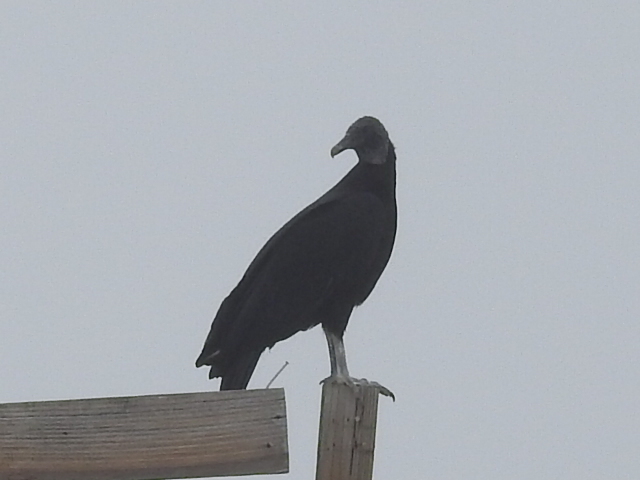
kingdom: Animalia
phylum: Chordata
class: Aves
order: Accipitriformes
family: Cathartidae
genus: Coragyps
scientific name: Coragyps atratus
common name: Black vulture
